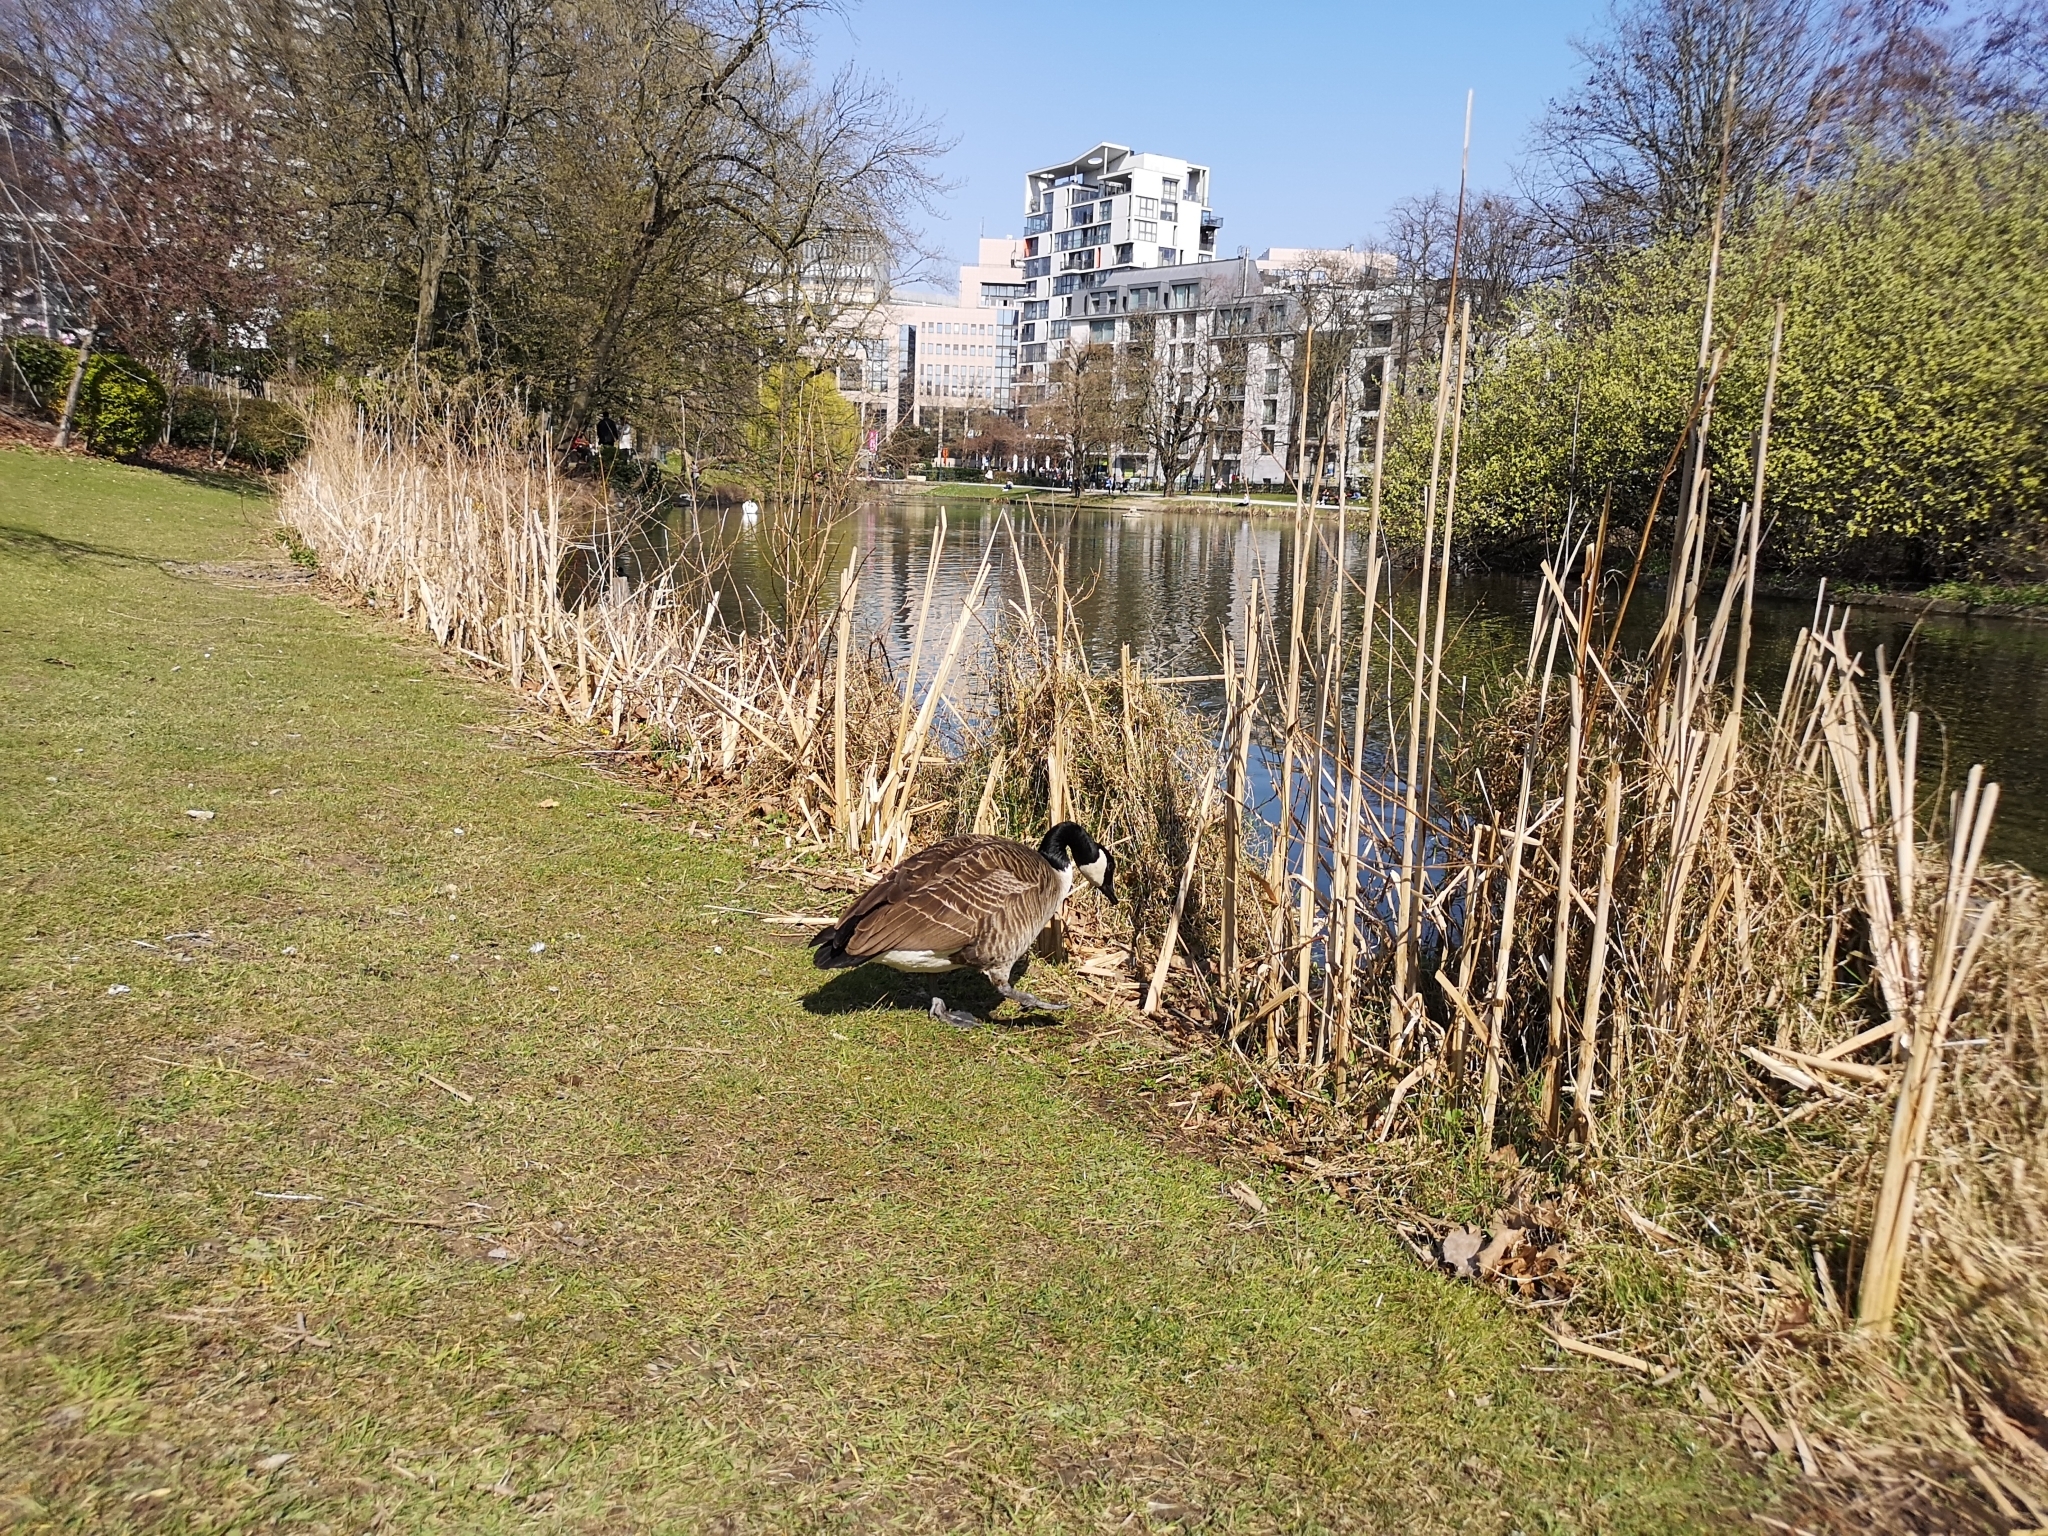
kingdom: Animalia
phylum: Chordata
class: Aves
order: Anseriformes
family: Anatidae
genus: Branta
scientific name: Branta canadensis
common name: Canada goose
